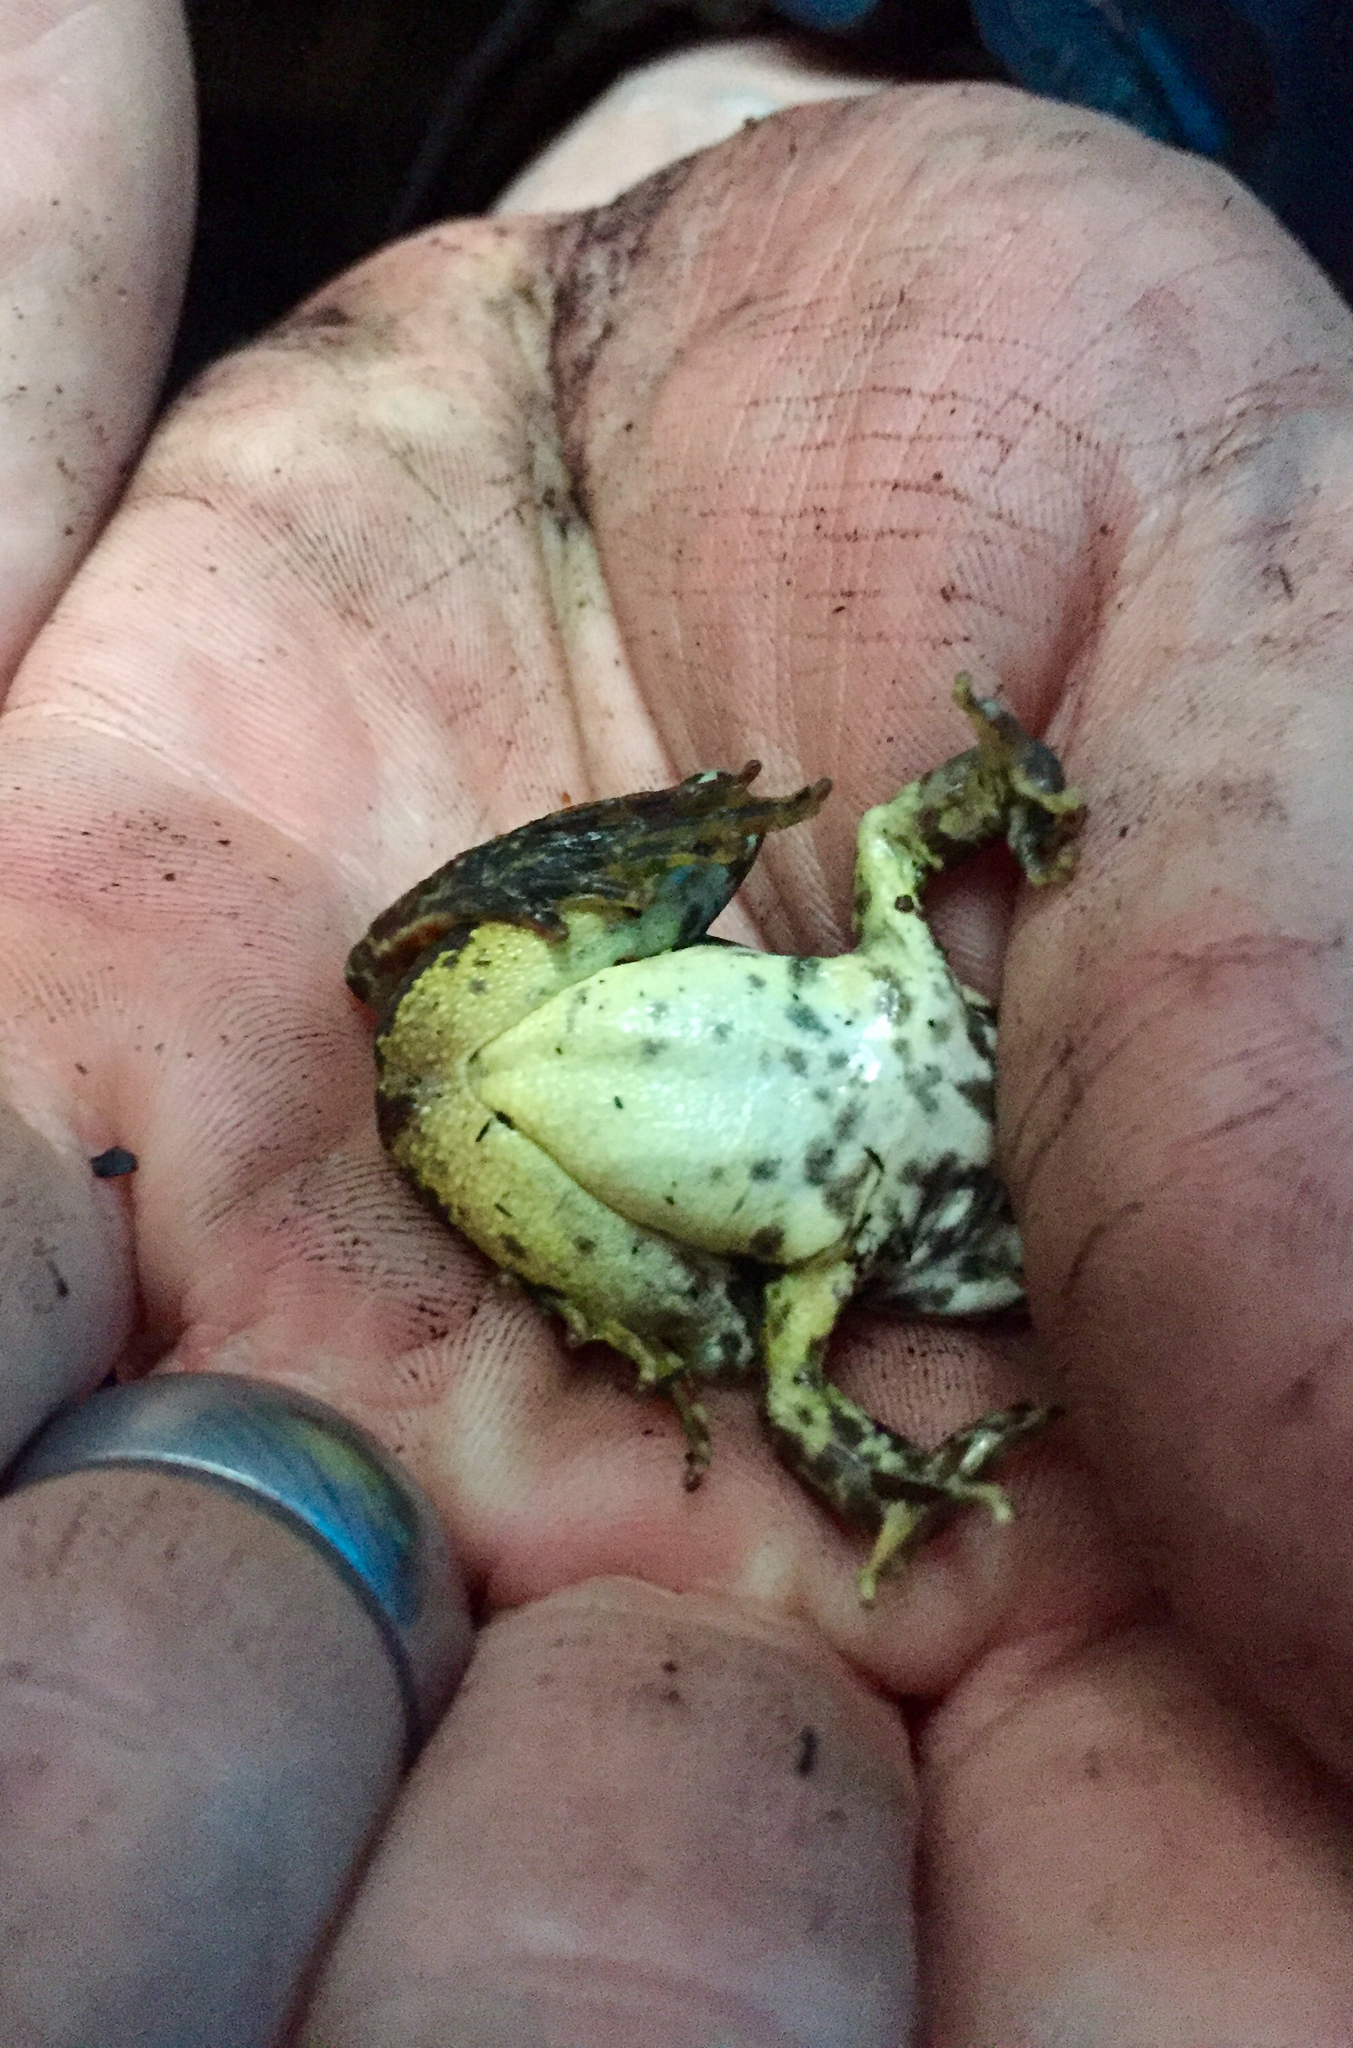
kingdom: Animalia
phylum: Chordata
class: Amphibia
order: Anura
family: Ranidae
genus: Rana
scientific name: Rana boylii
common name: Foothill yellow-legged frog
